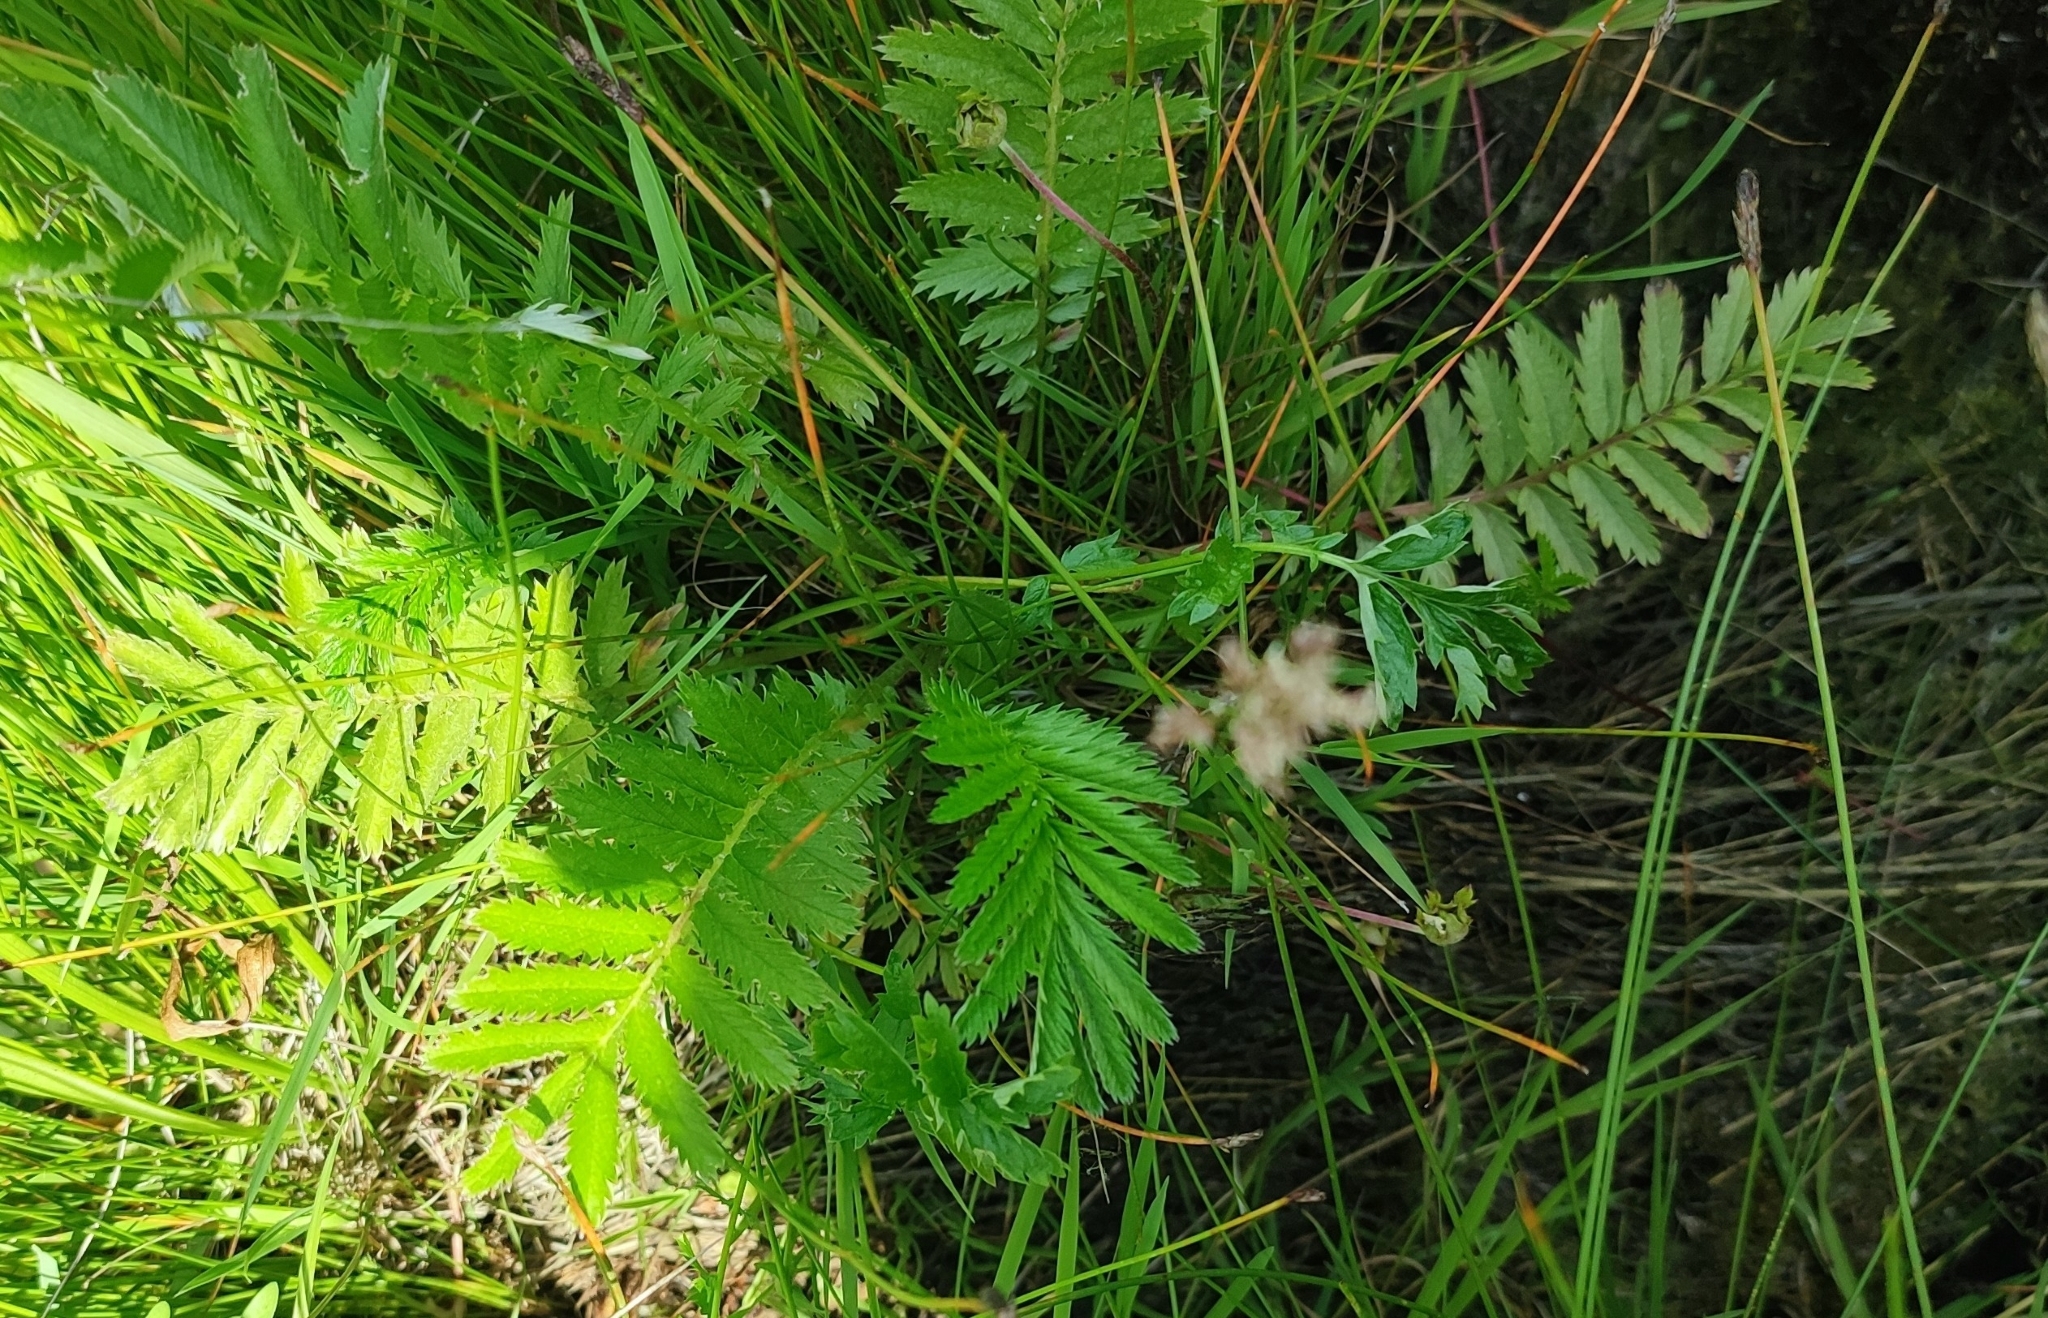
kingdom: Plantae
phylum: Tracheophyta
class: Magnoliopsida
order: Rosales
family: Rosaceae
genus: Argentina
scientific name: Argentina anserina
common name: Common silverweed
